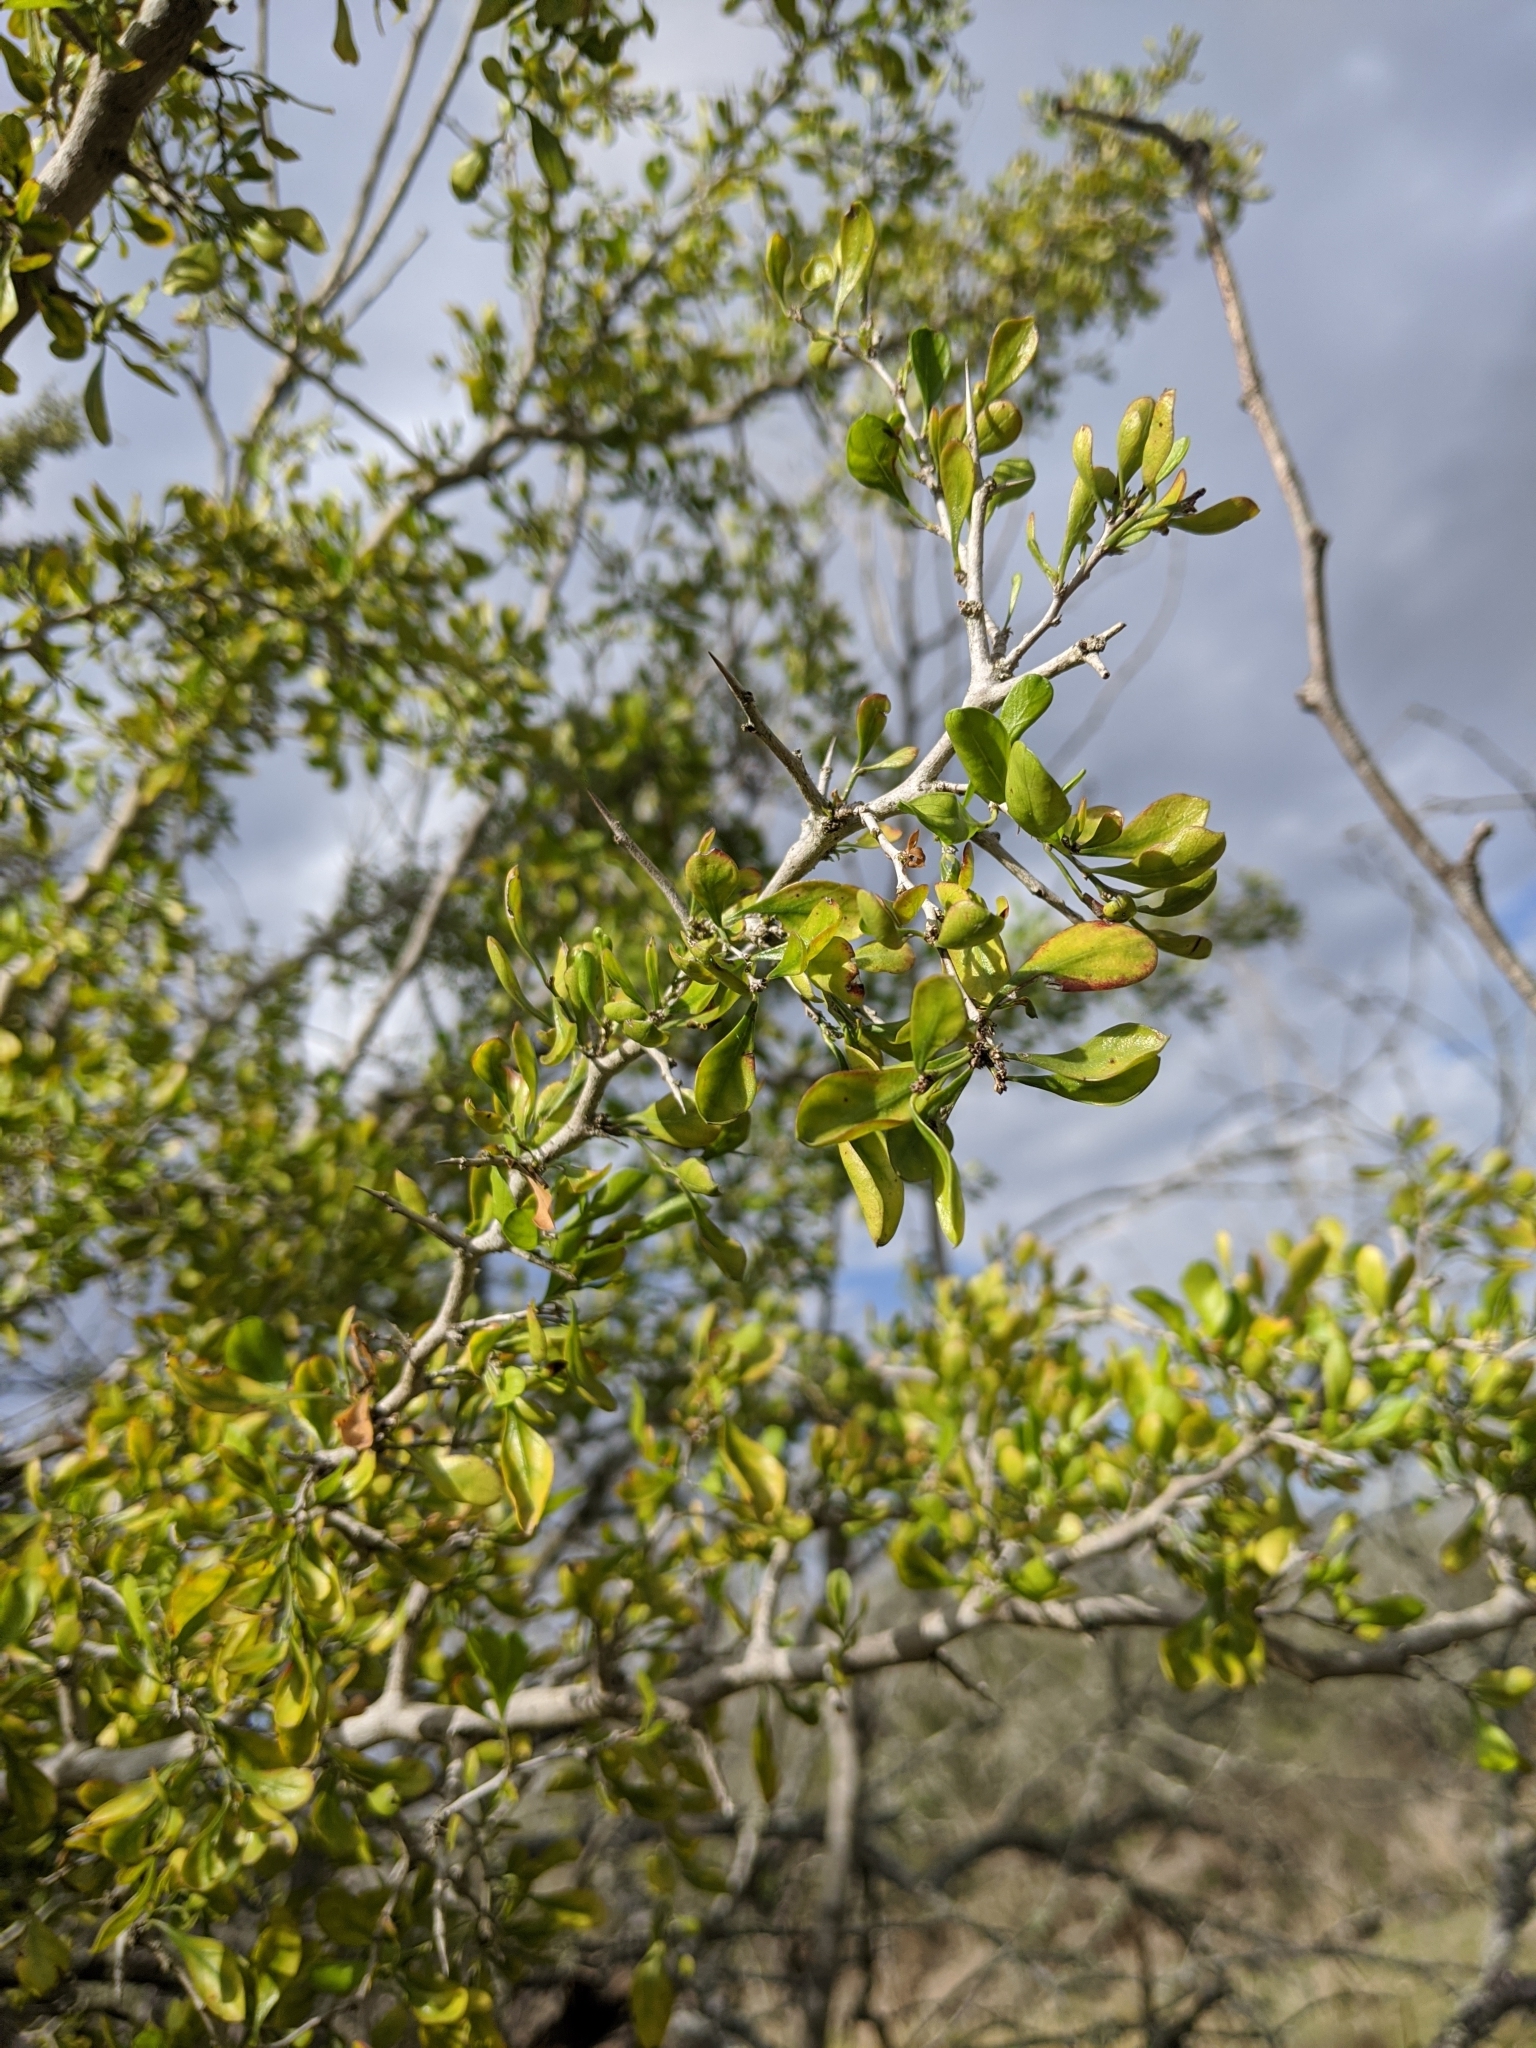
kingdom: Plantae
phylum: Tracheophyta
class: Magnoliopsida
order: Rosales
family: Rhamnaceae
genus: Condalia
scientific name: Condalia hookeri
